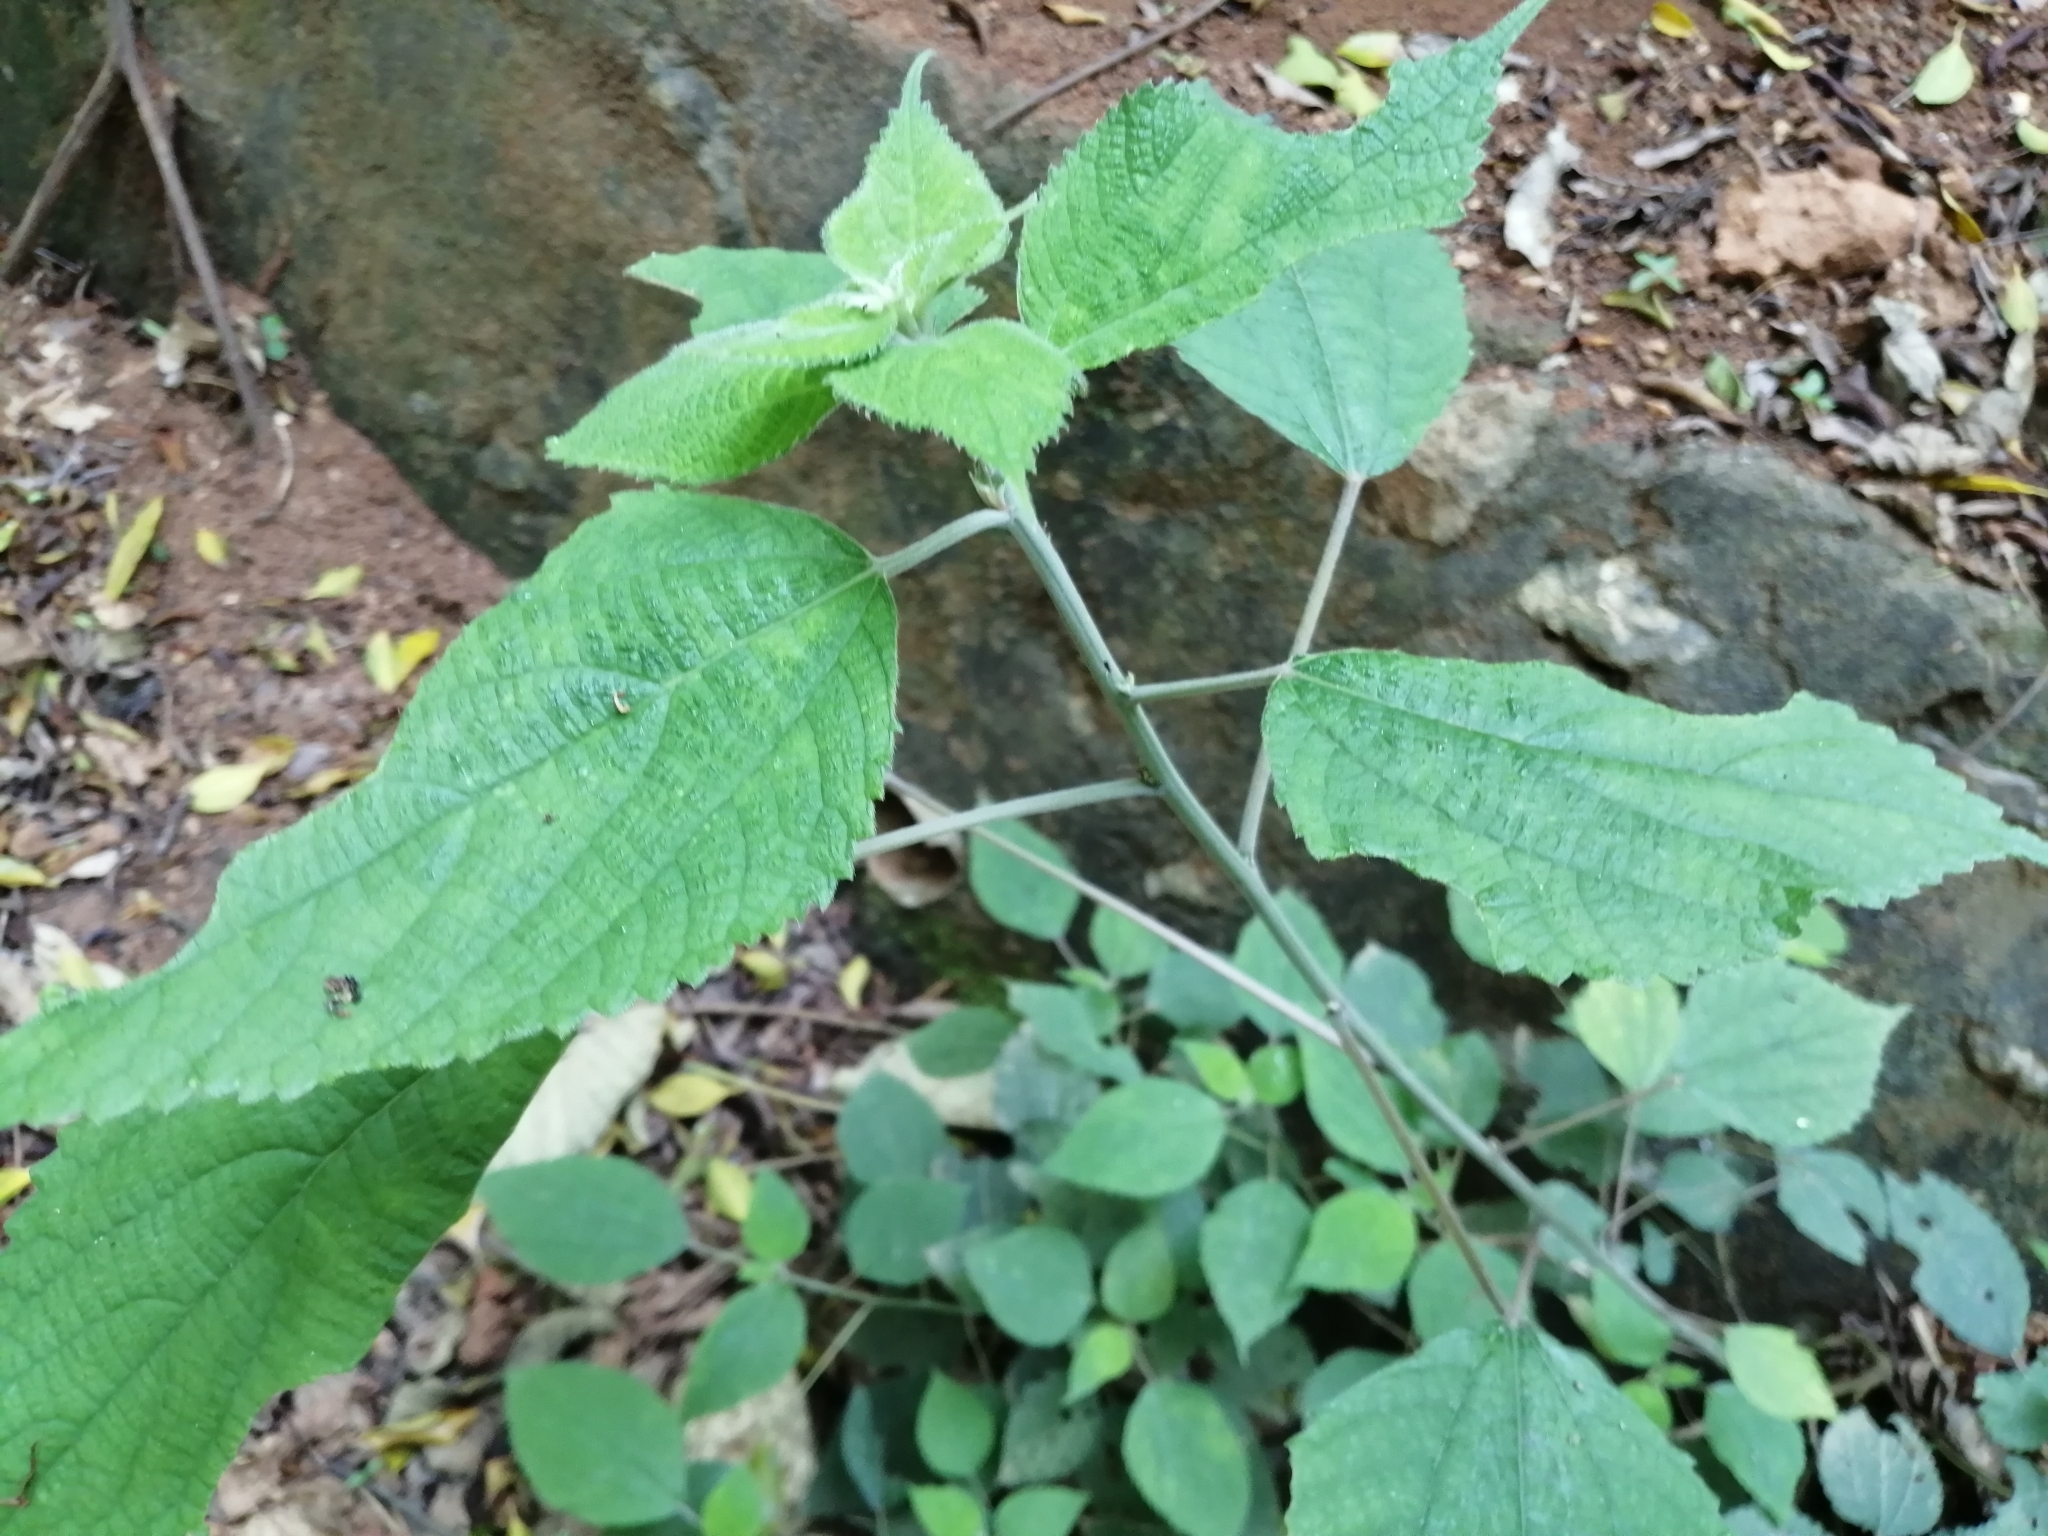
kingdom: Plantae
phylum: Tracheophyta
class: Magnoliopsida
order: Rosales
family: Urticaceae
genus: Boehmeria
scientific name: Boehmeria nivea
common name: Ramie chinese grass
